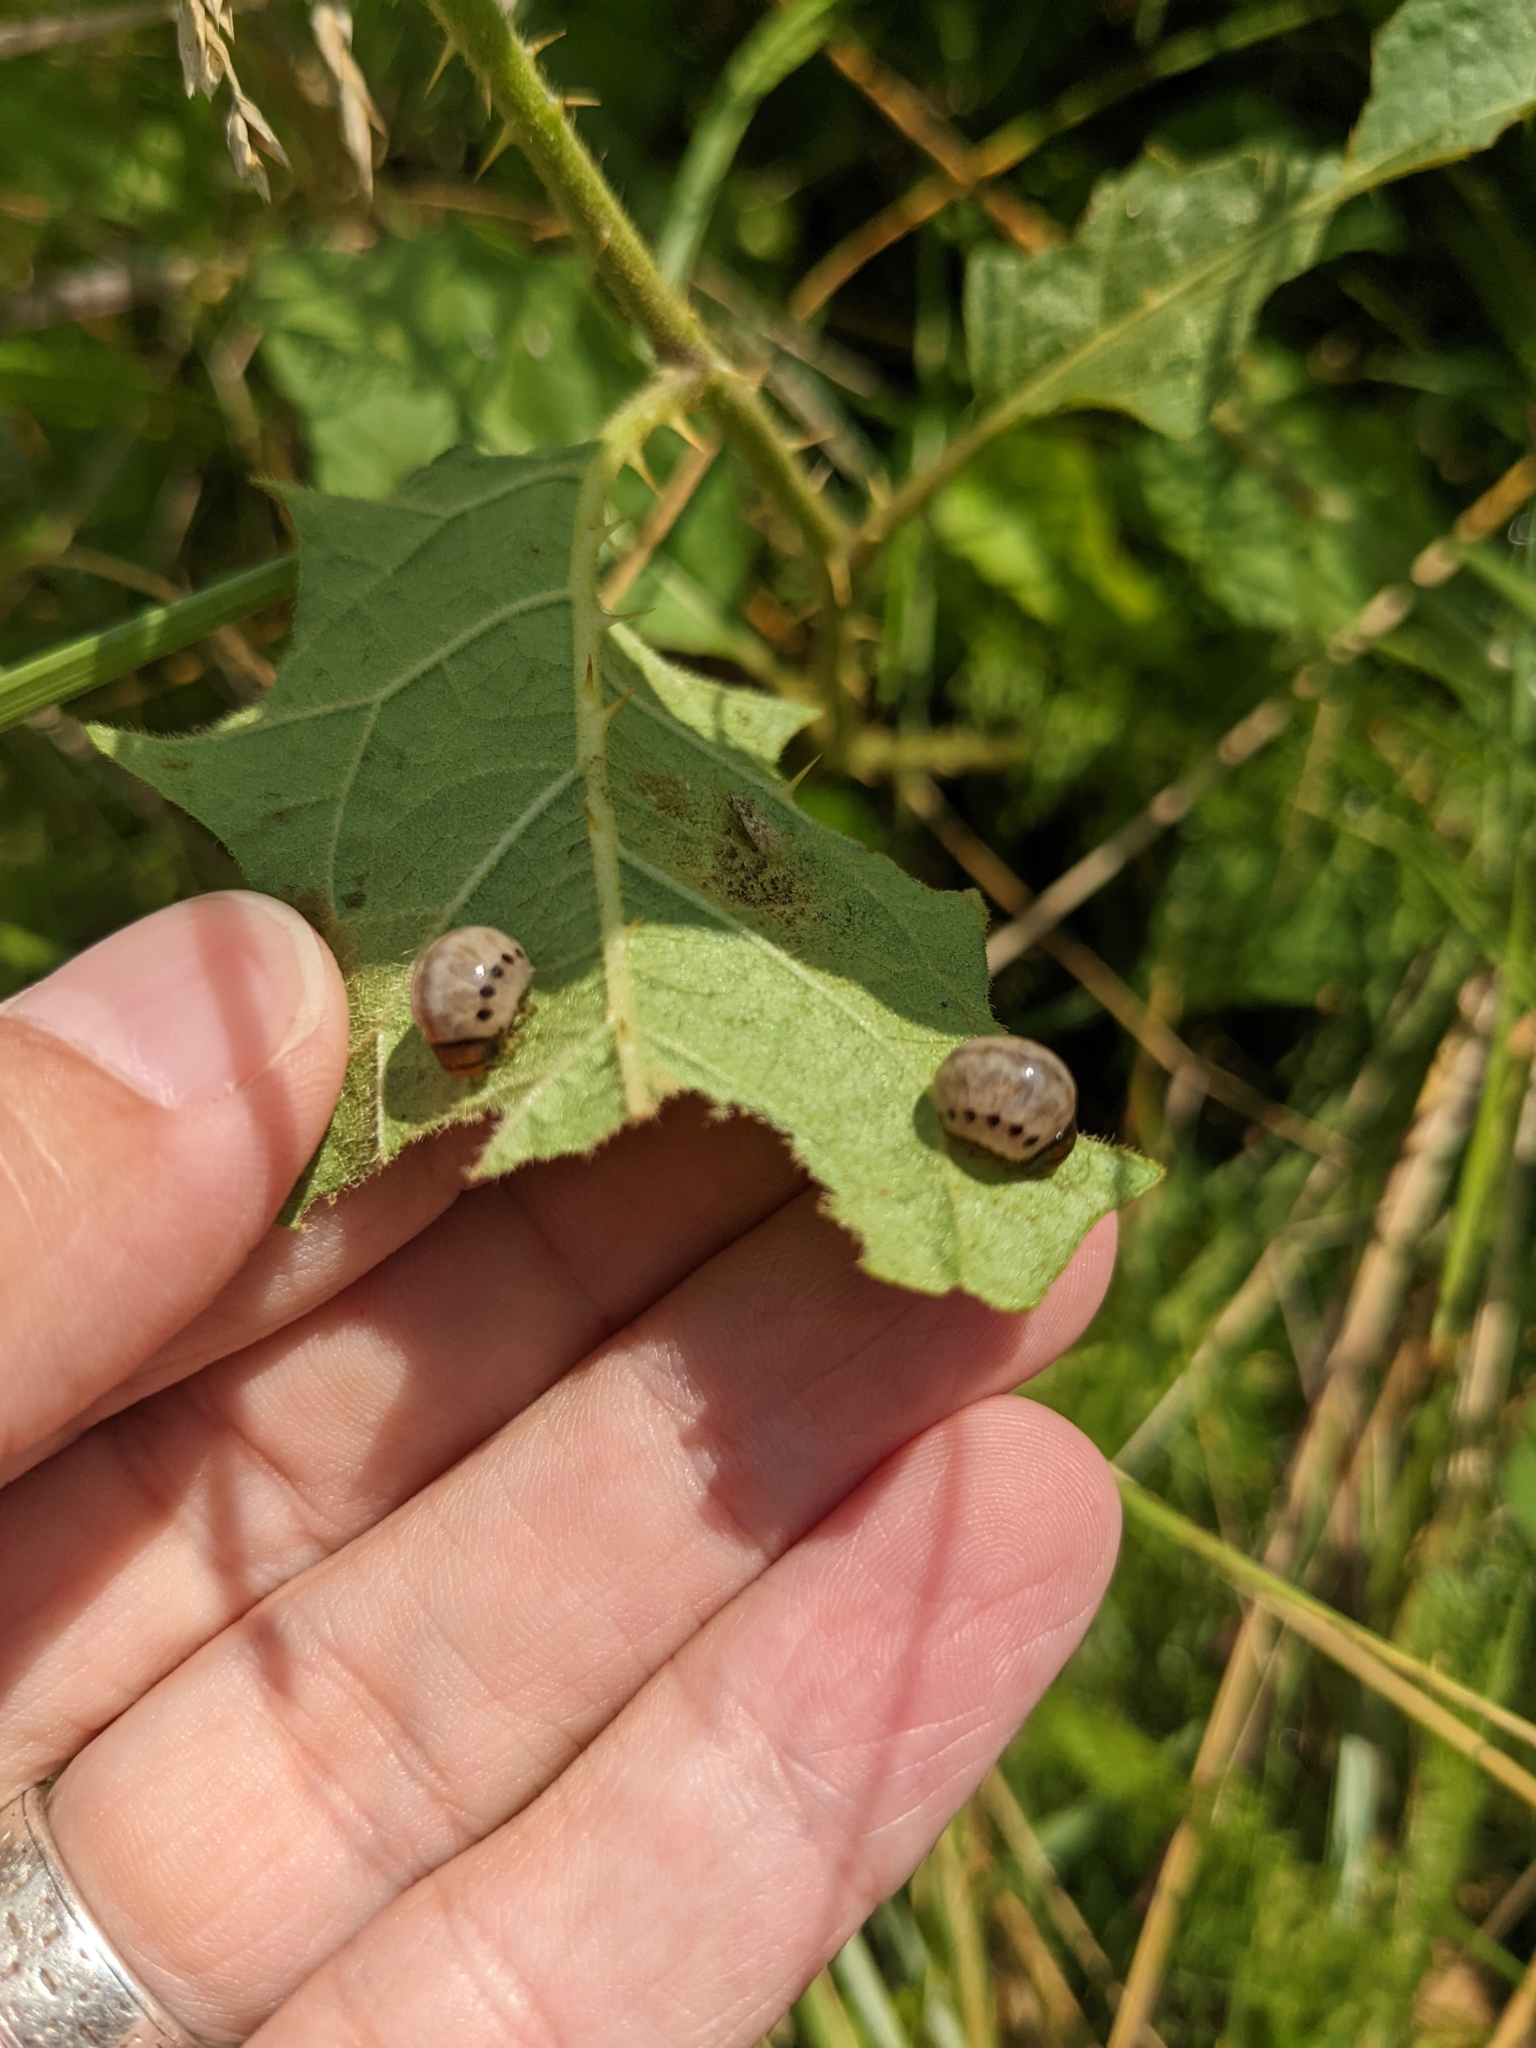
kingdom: Animalia
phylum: Arthropoda
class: Insecta
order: Coleoptera
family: Chrysomelidae
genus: Leptinotarsa
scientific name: Leptinotarsa juncta
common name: False potato beetle
